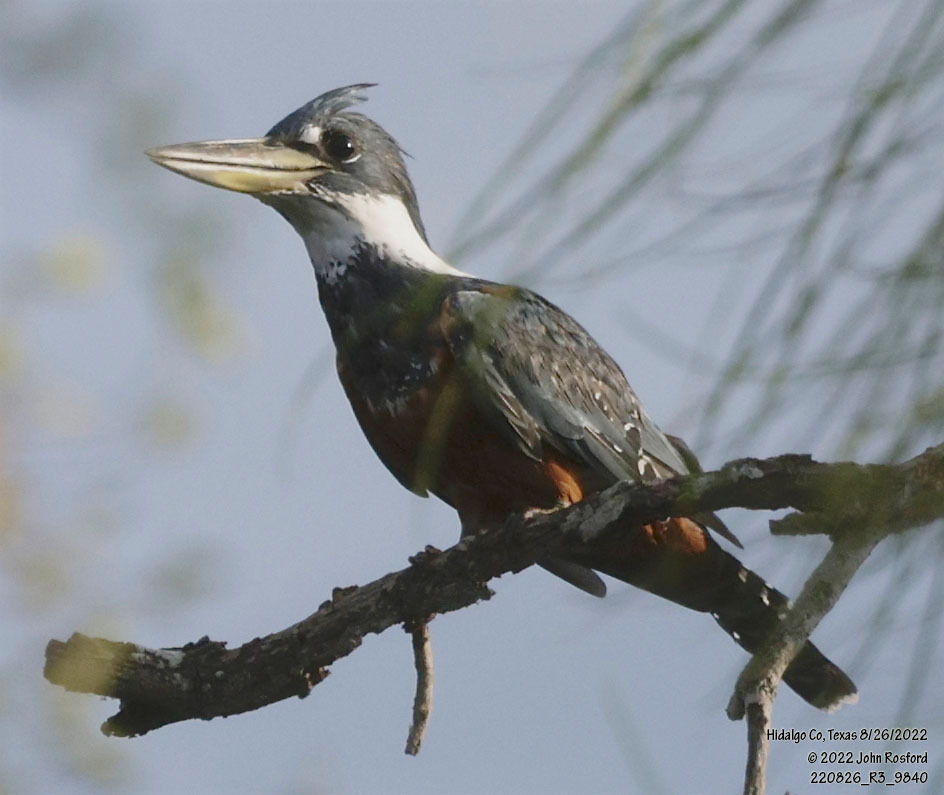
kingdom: Animalia
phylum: Chordata
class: Aves
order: Coraciiformes
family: Alcedinidae
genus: Megaceryle
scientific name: Megaceryle torquata
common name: Ringed kingfisher
